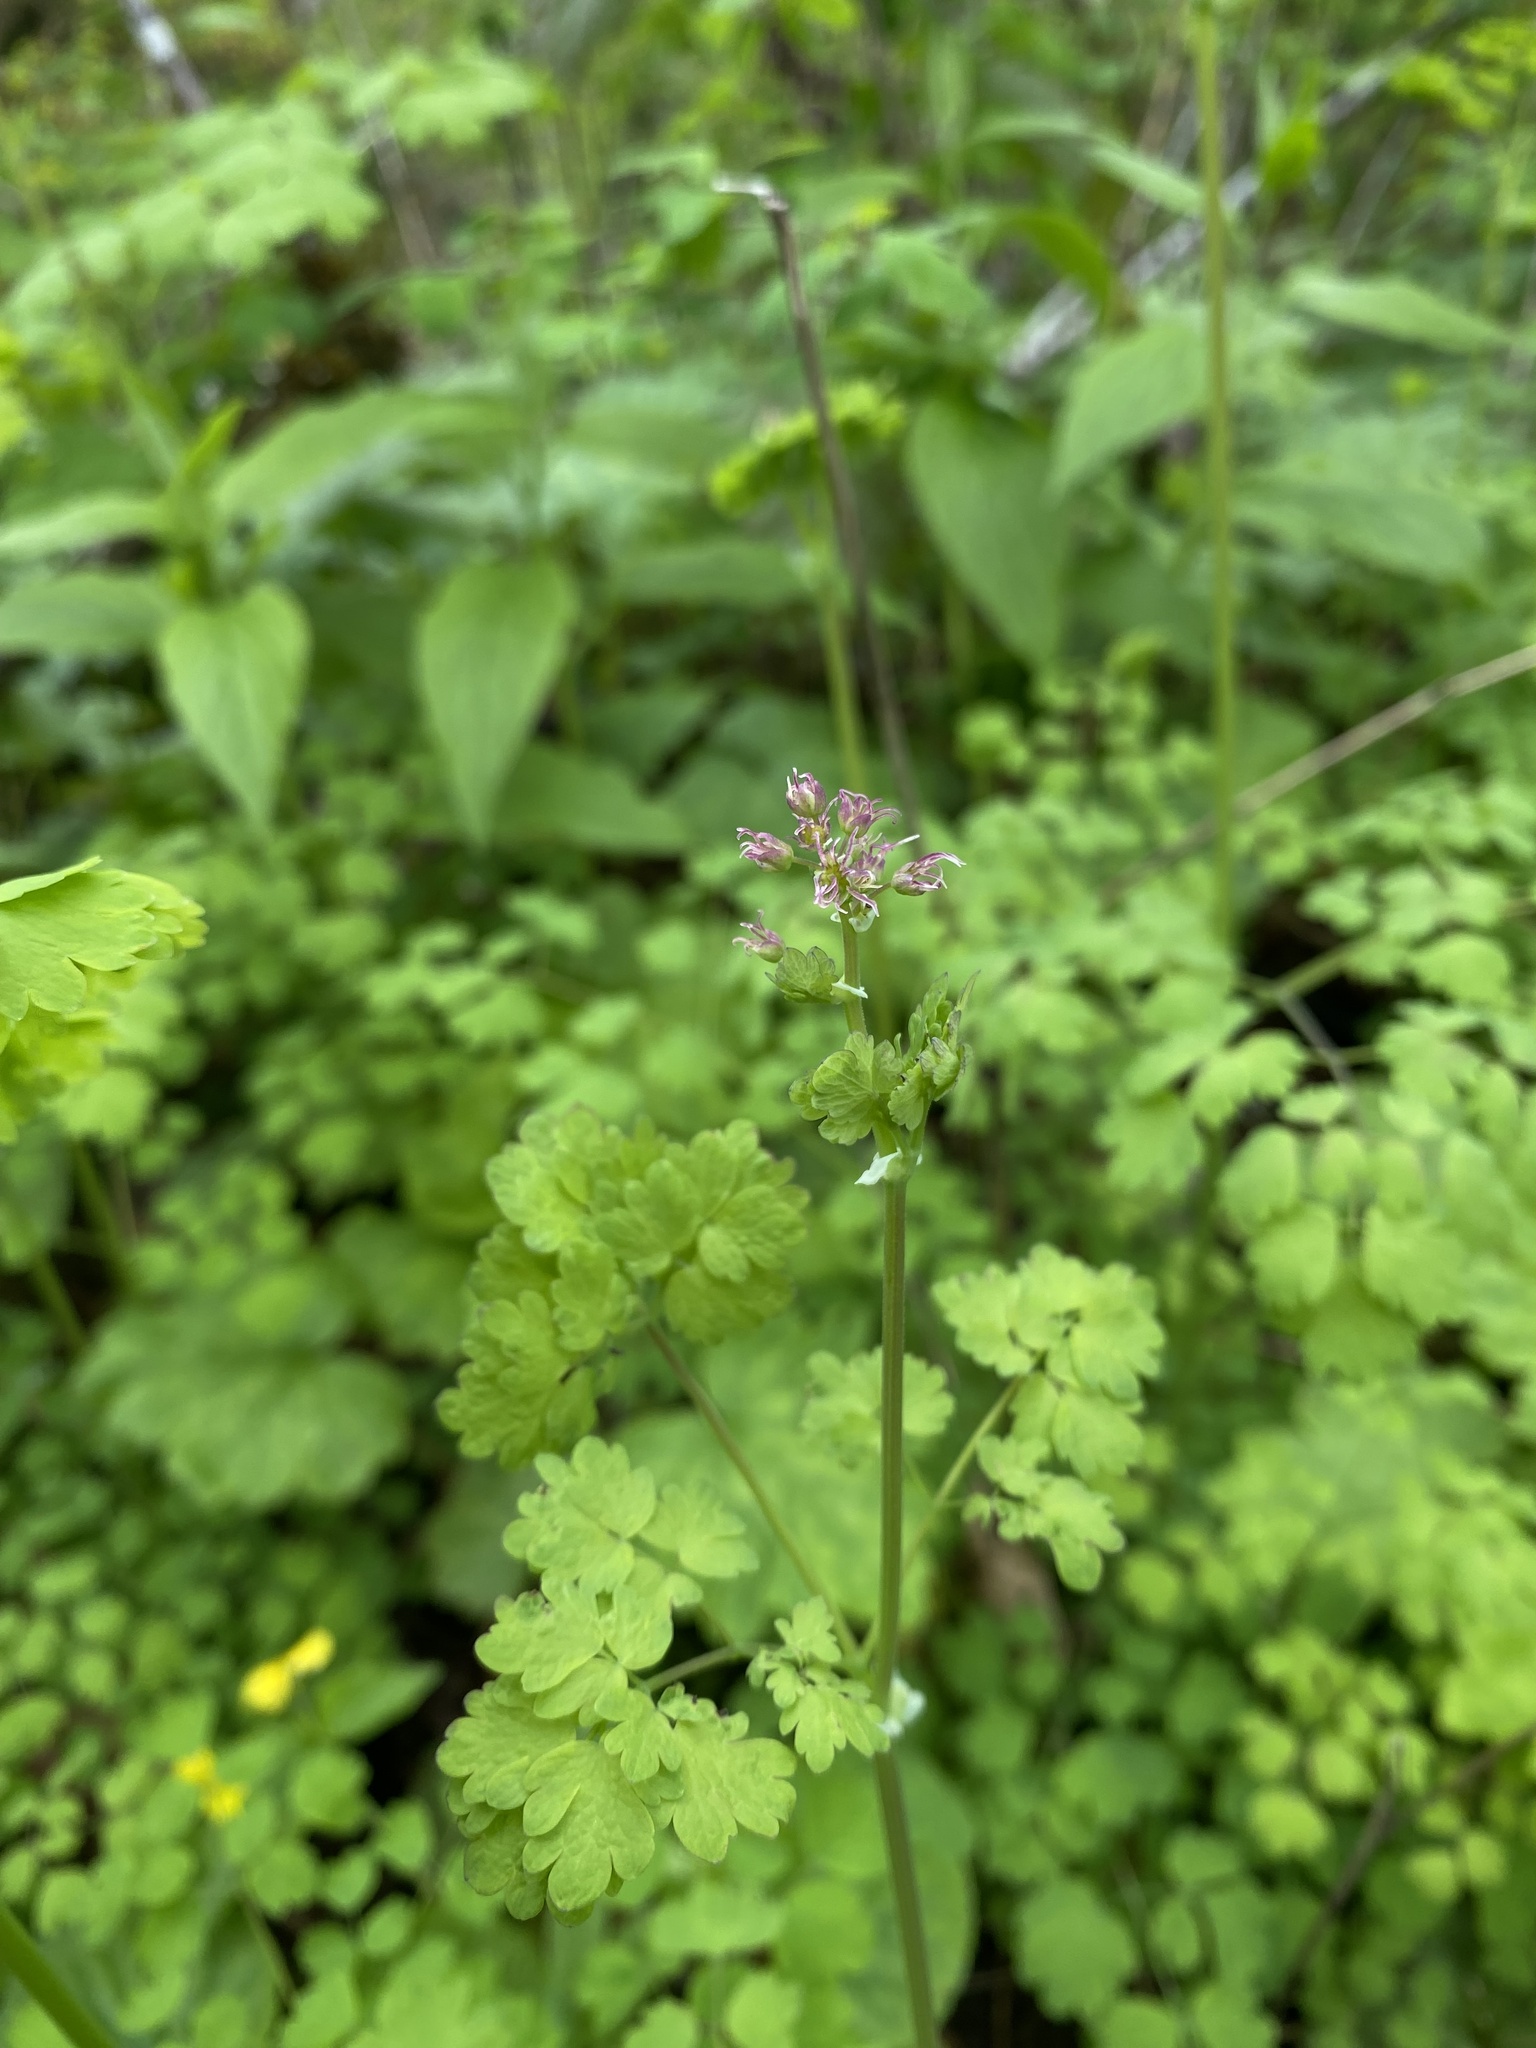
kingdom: Plantae
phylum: Tracheophyta
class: Magnoliopsida
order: Ranunculales
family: Ranunculaceae
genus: Thalictrum
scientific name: Thalictrum occidentale
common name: Western meadow-rue
